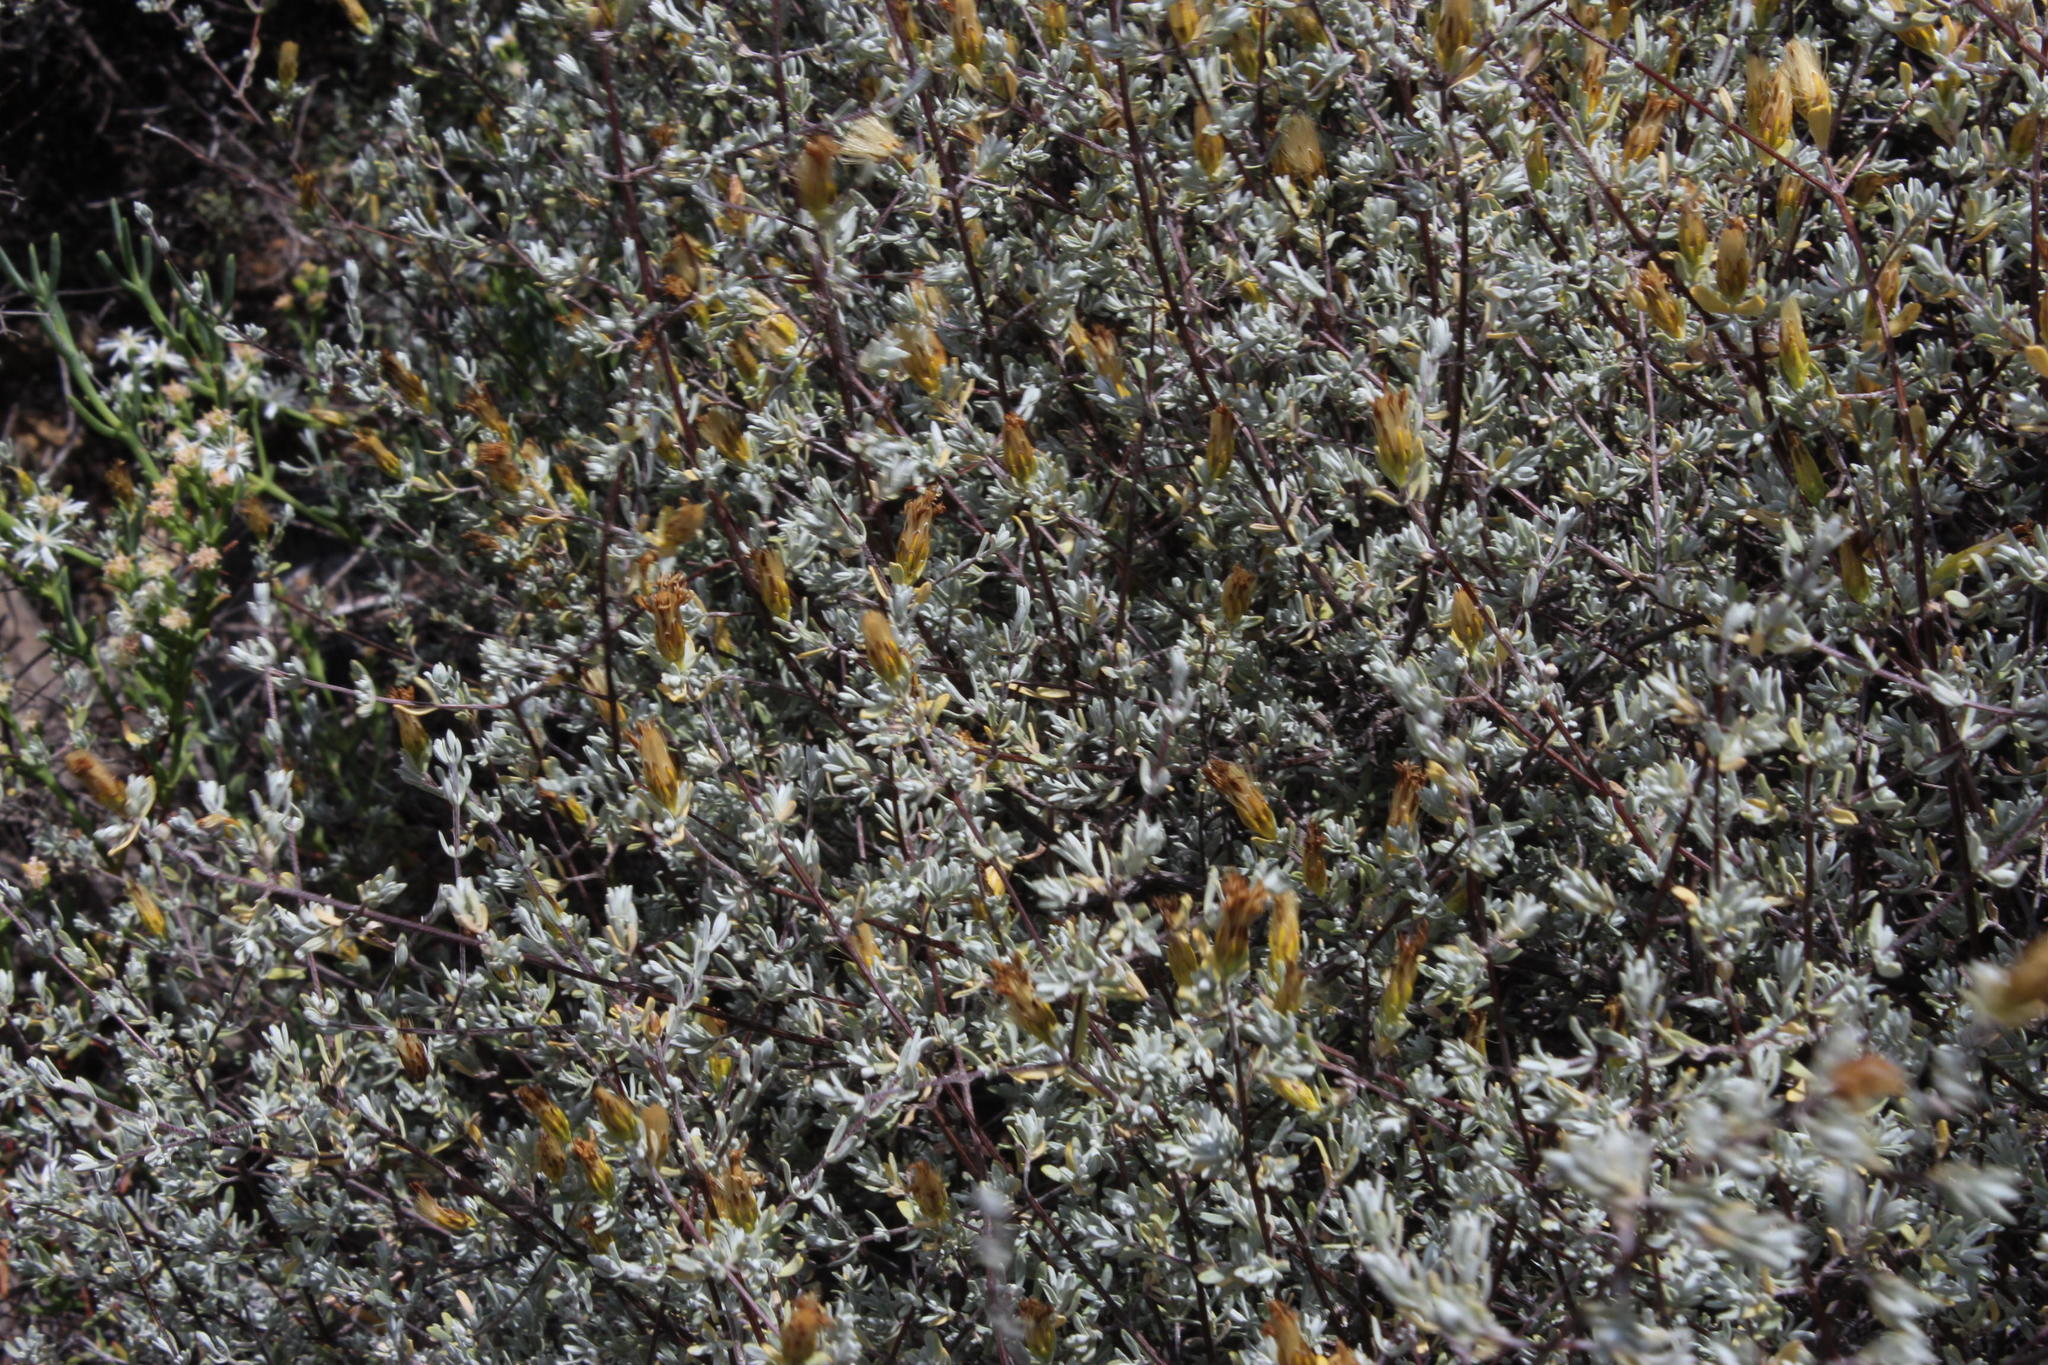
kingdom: Plantae
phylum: Tracheophyta
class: Magnoliopsida
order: Asterales
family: Asteraceae
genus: Pteronia
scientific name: Pteronia incana
